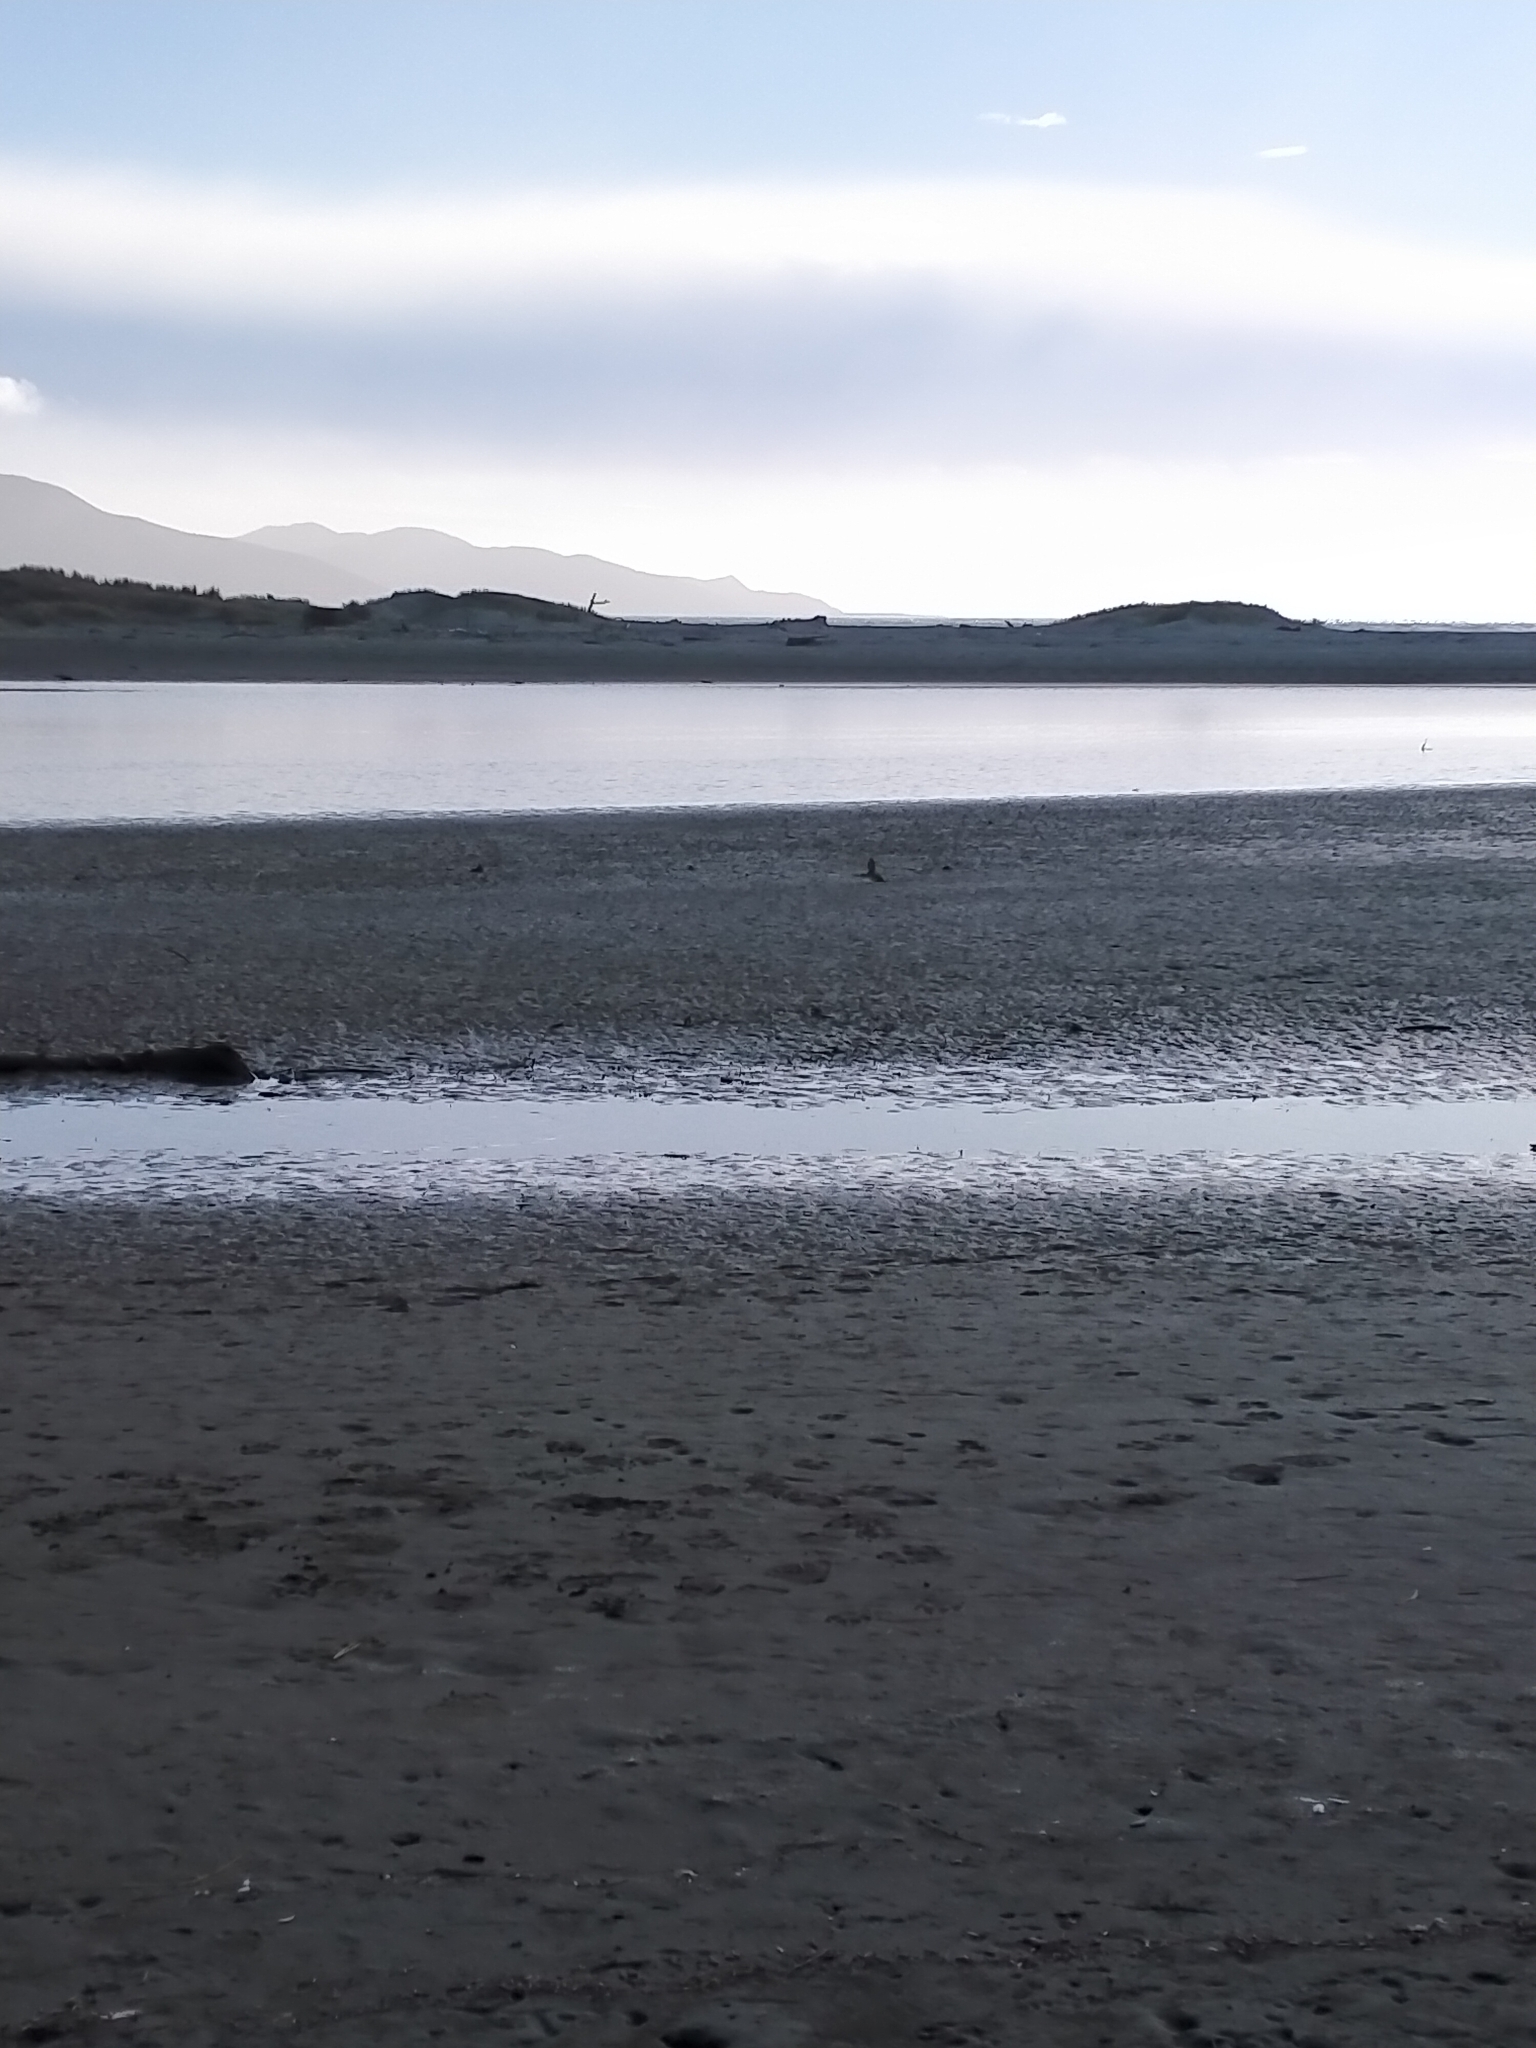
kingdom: Animalia
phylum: Chordata
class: Aves
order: Coraciiformes
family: Alcedinidae
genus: Todiramphus
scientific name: Todiramphus sanctus
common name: Sacred kingfisher
